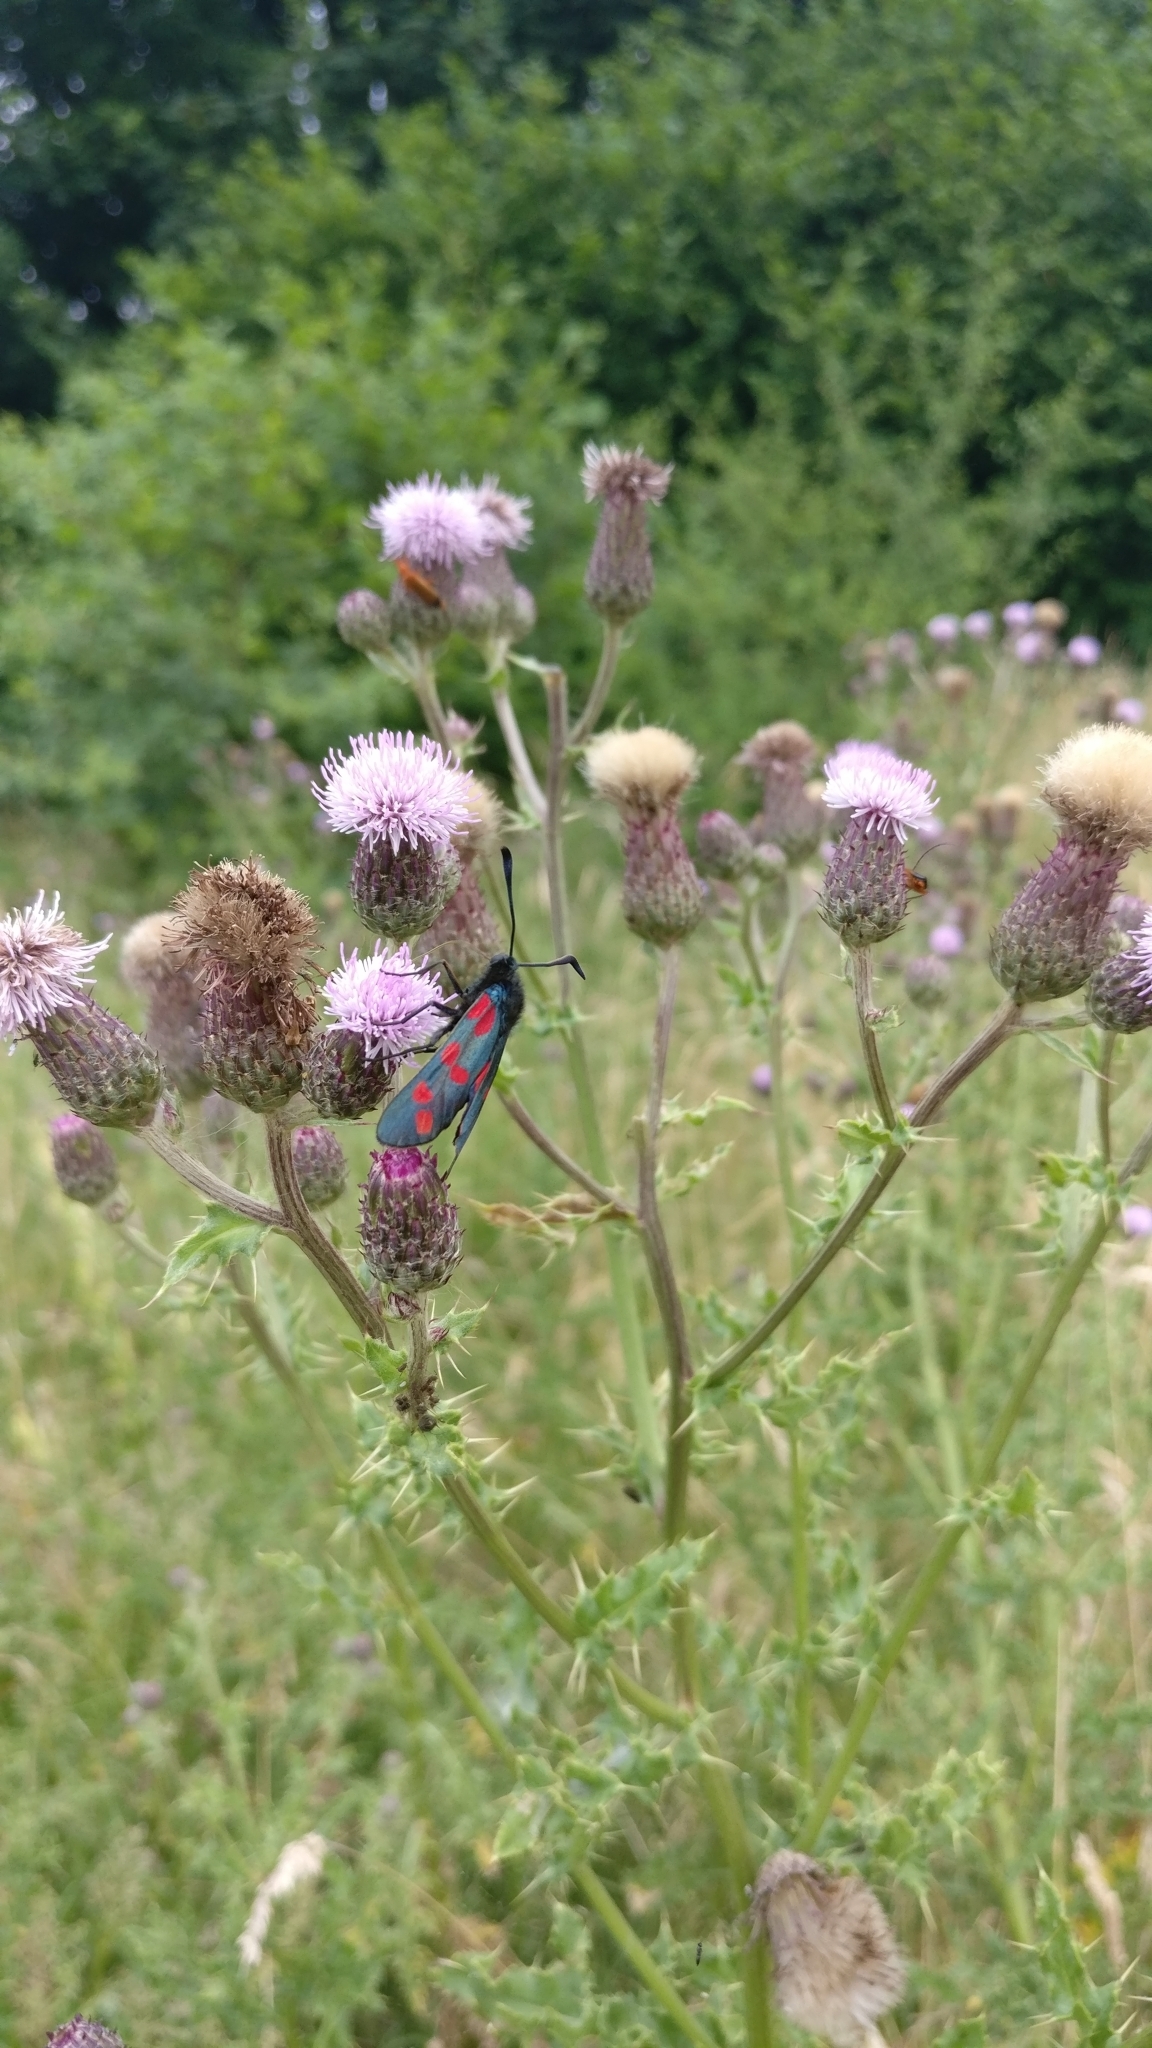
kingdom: Animalia
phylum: Arthropoda
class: Insecta
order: Lepidoptera
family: Zygaenidae
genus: Zygaena
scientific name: Zygaena filipendulae
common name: Six-spot burnet
